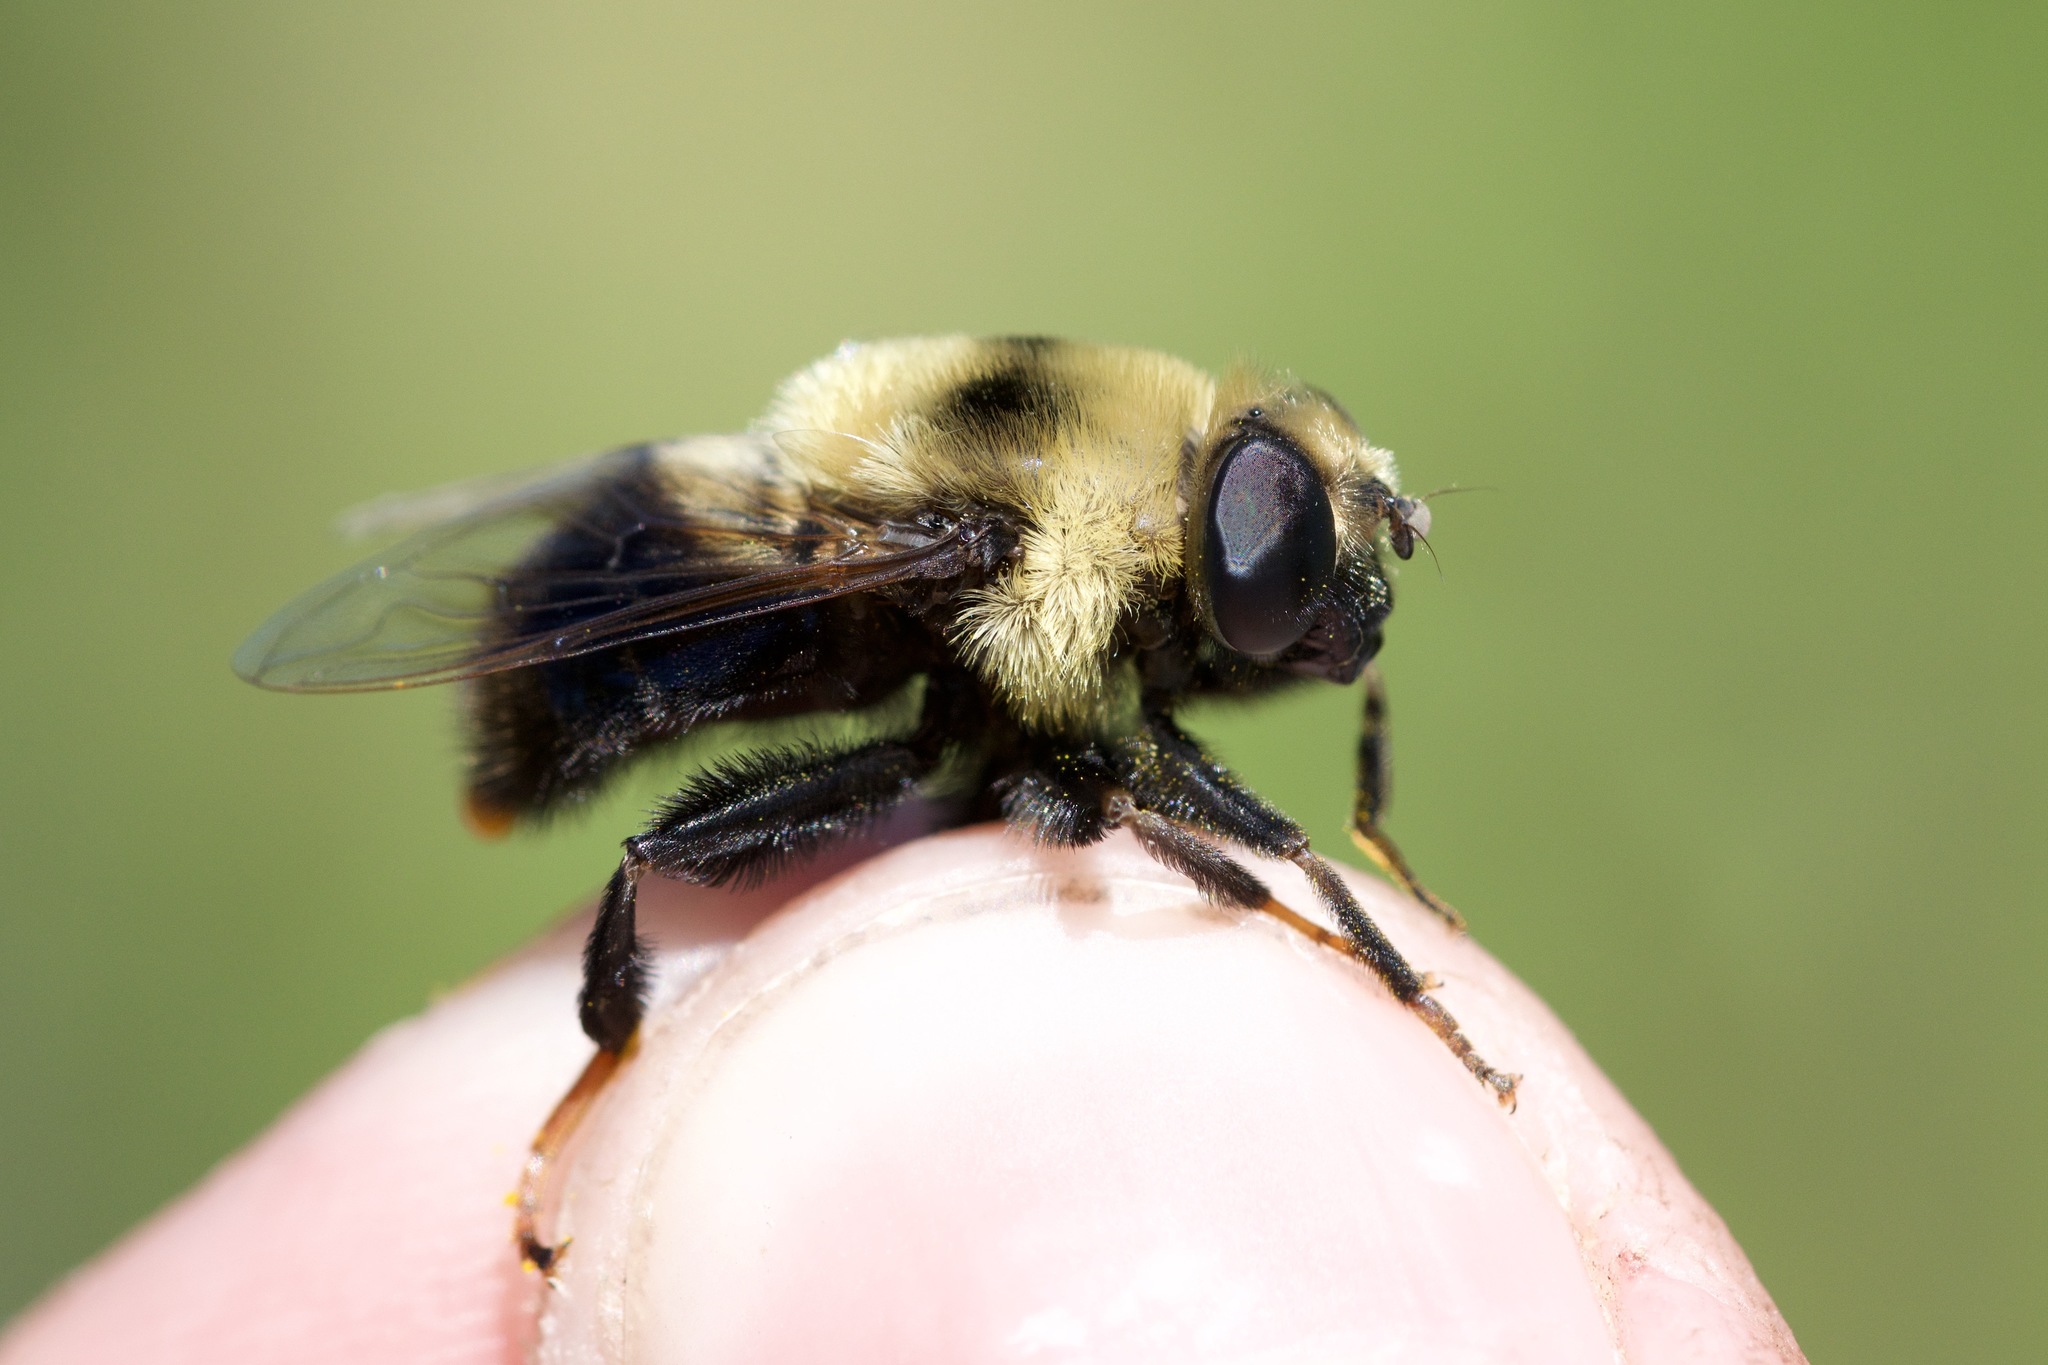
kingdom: Animalia
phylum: Arthropoda
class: Insecta
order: Diptera
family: Syrphidae
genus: Eristalis
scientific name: Eristalis flavipes
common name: Orange-legged drone fly
